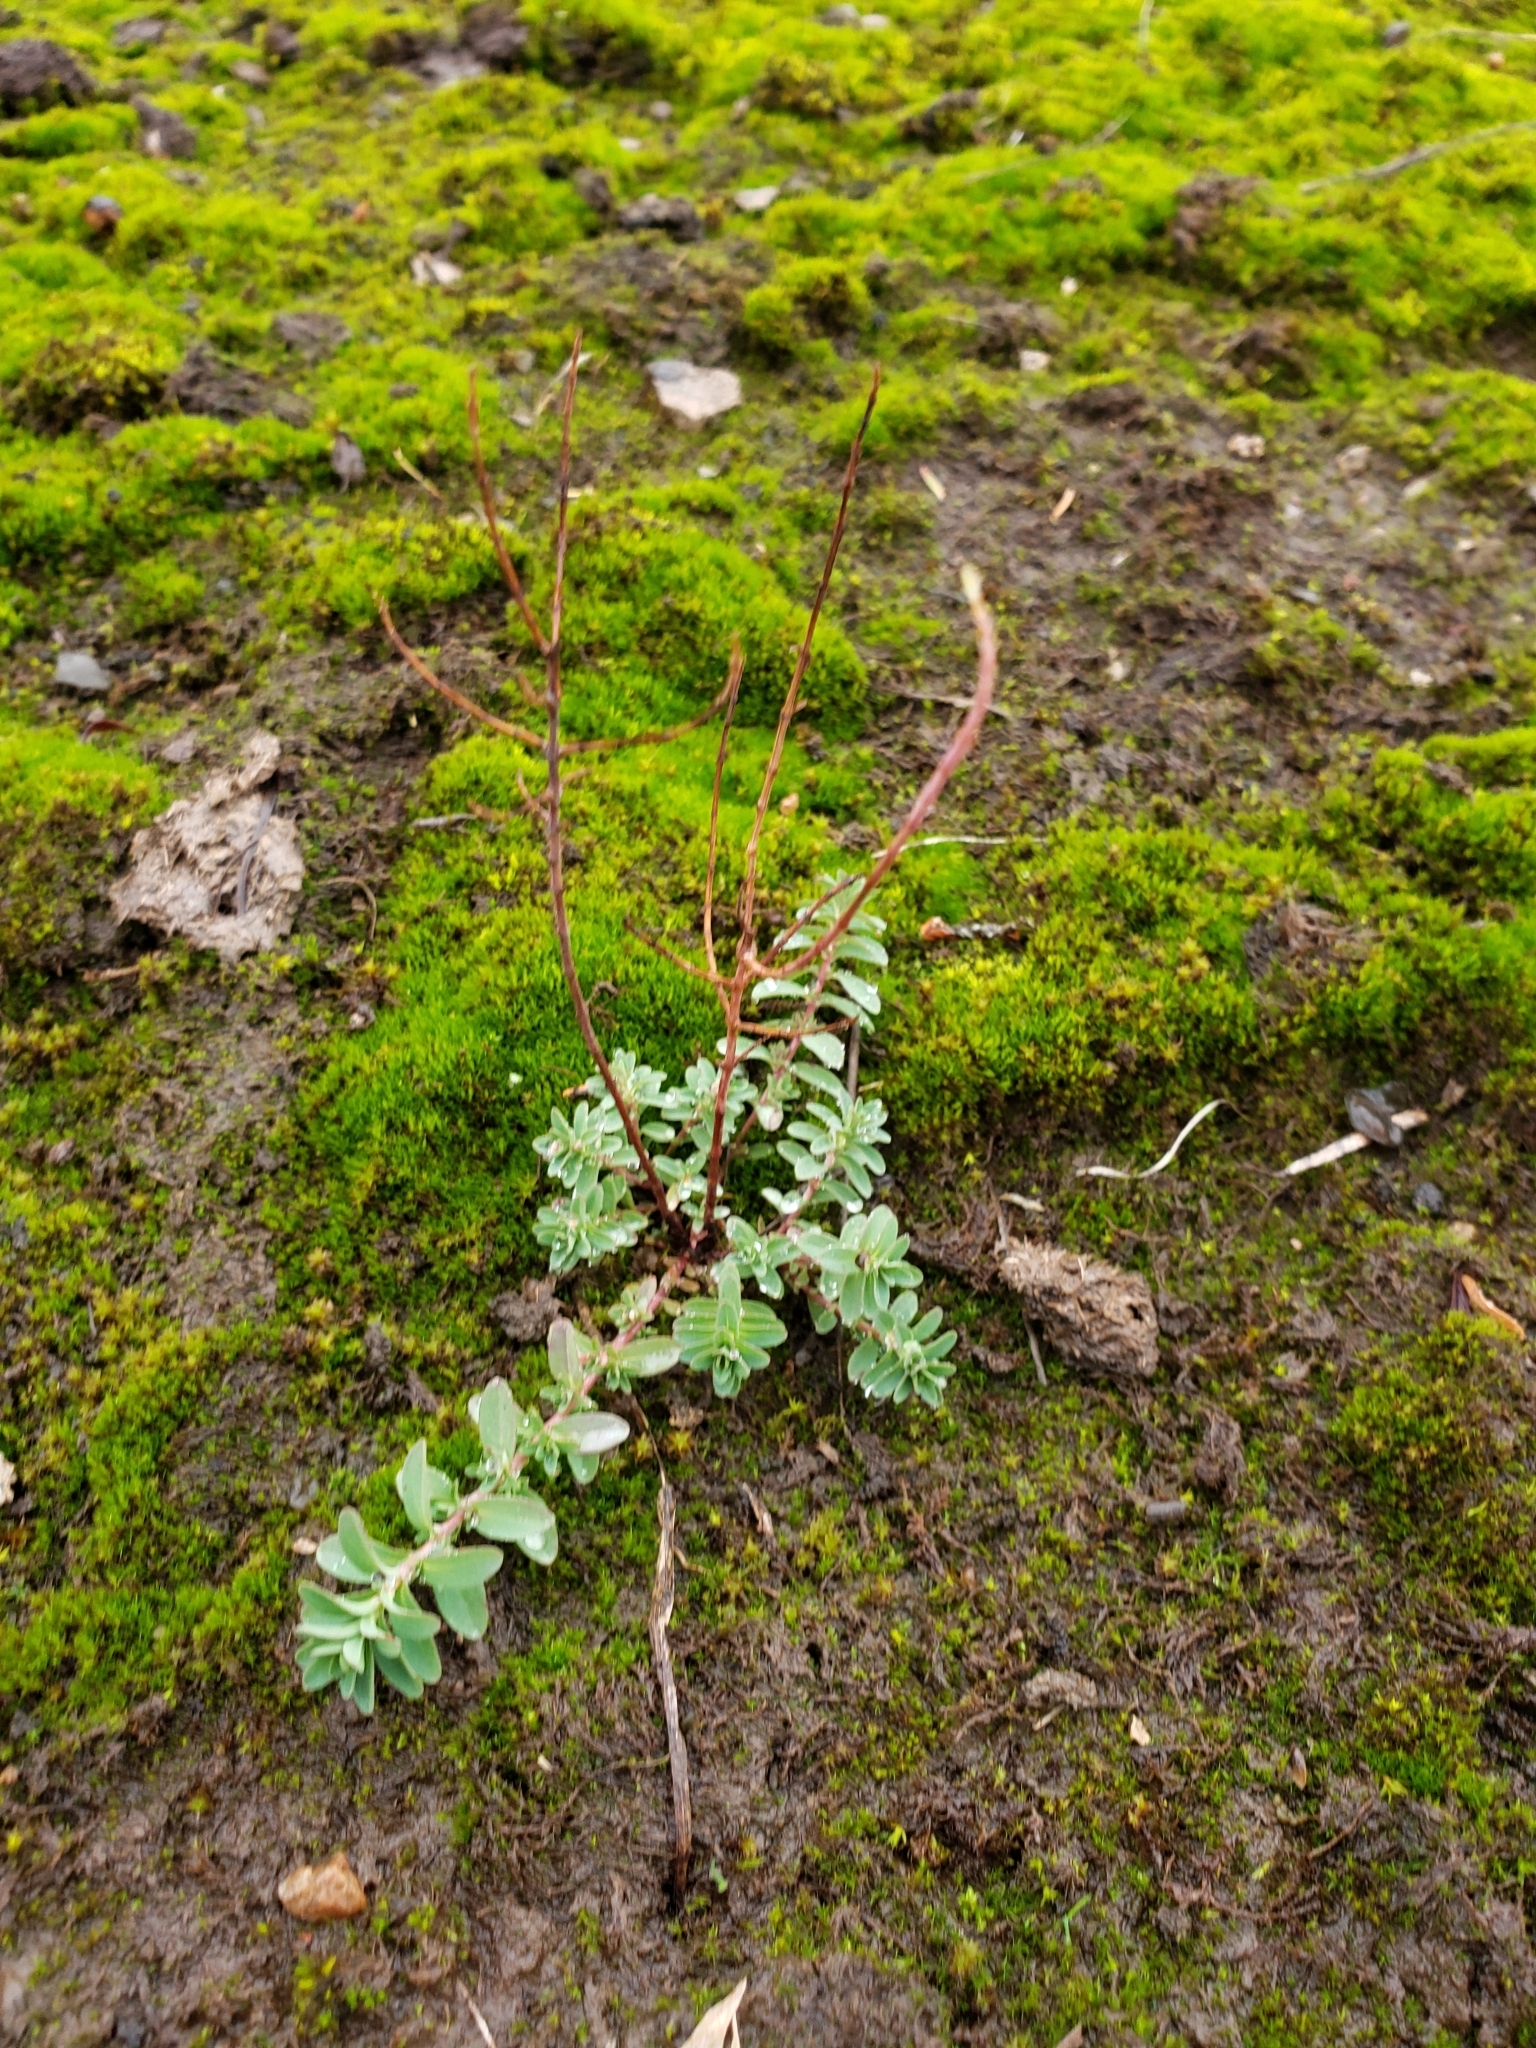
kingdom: Plantae
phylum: Tracheophyta
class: Magnoliopsida
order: Malpighiales
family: Hypericaceae
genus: Hypericum
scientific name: Hypericum perforatum
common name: Common st. johnswort
